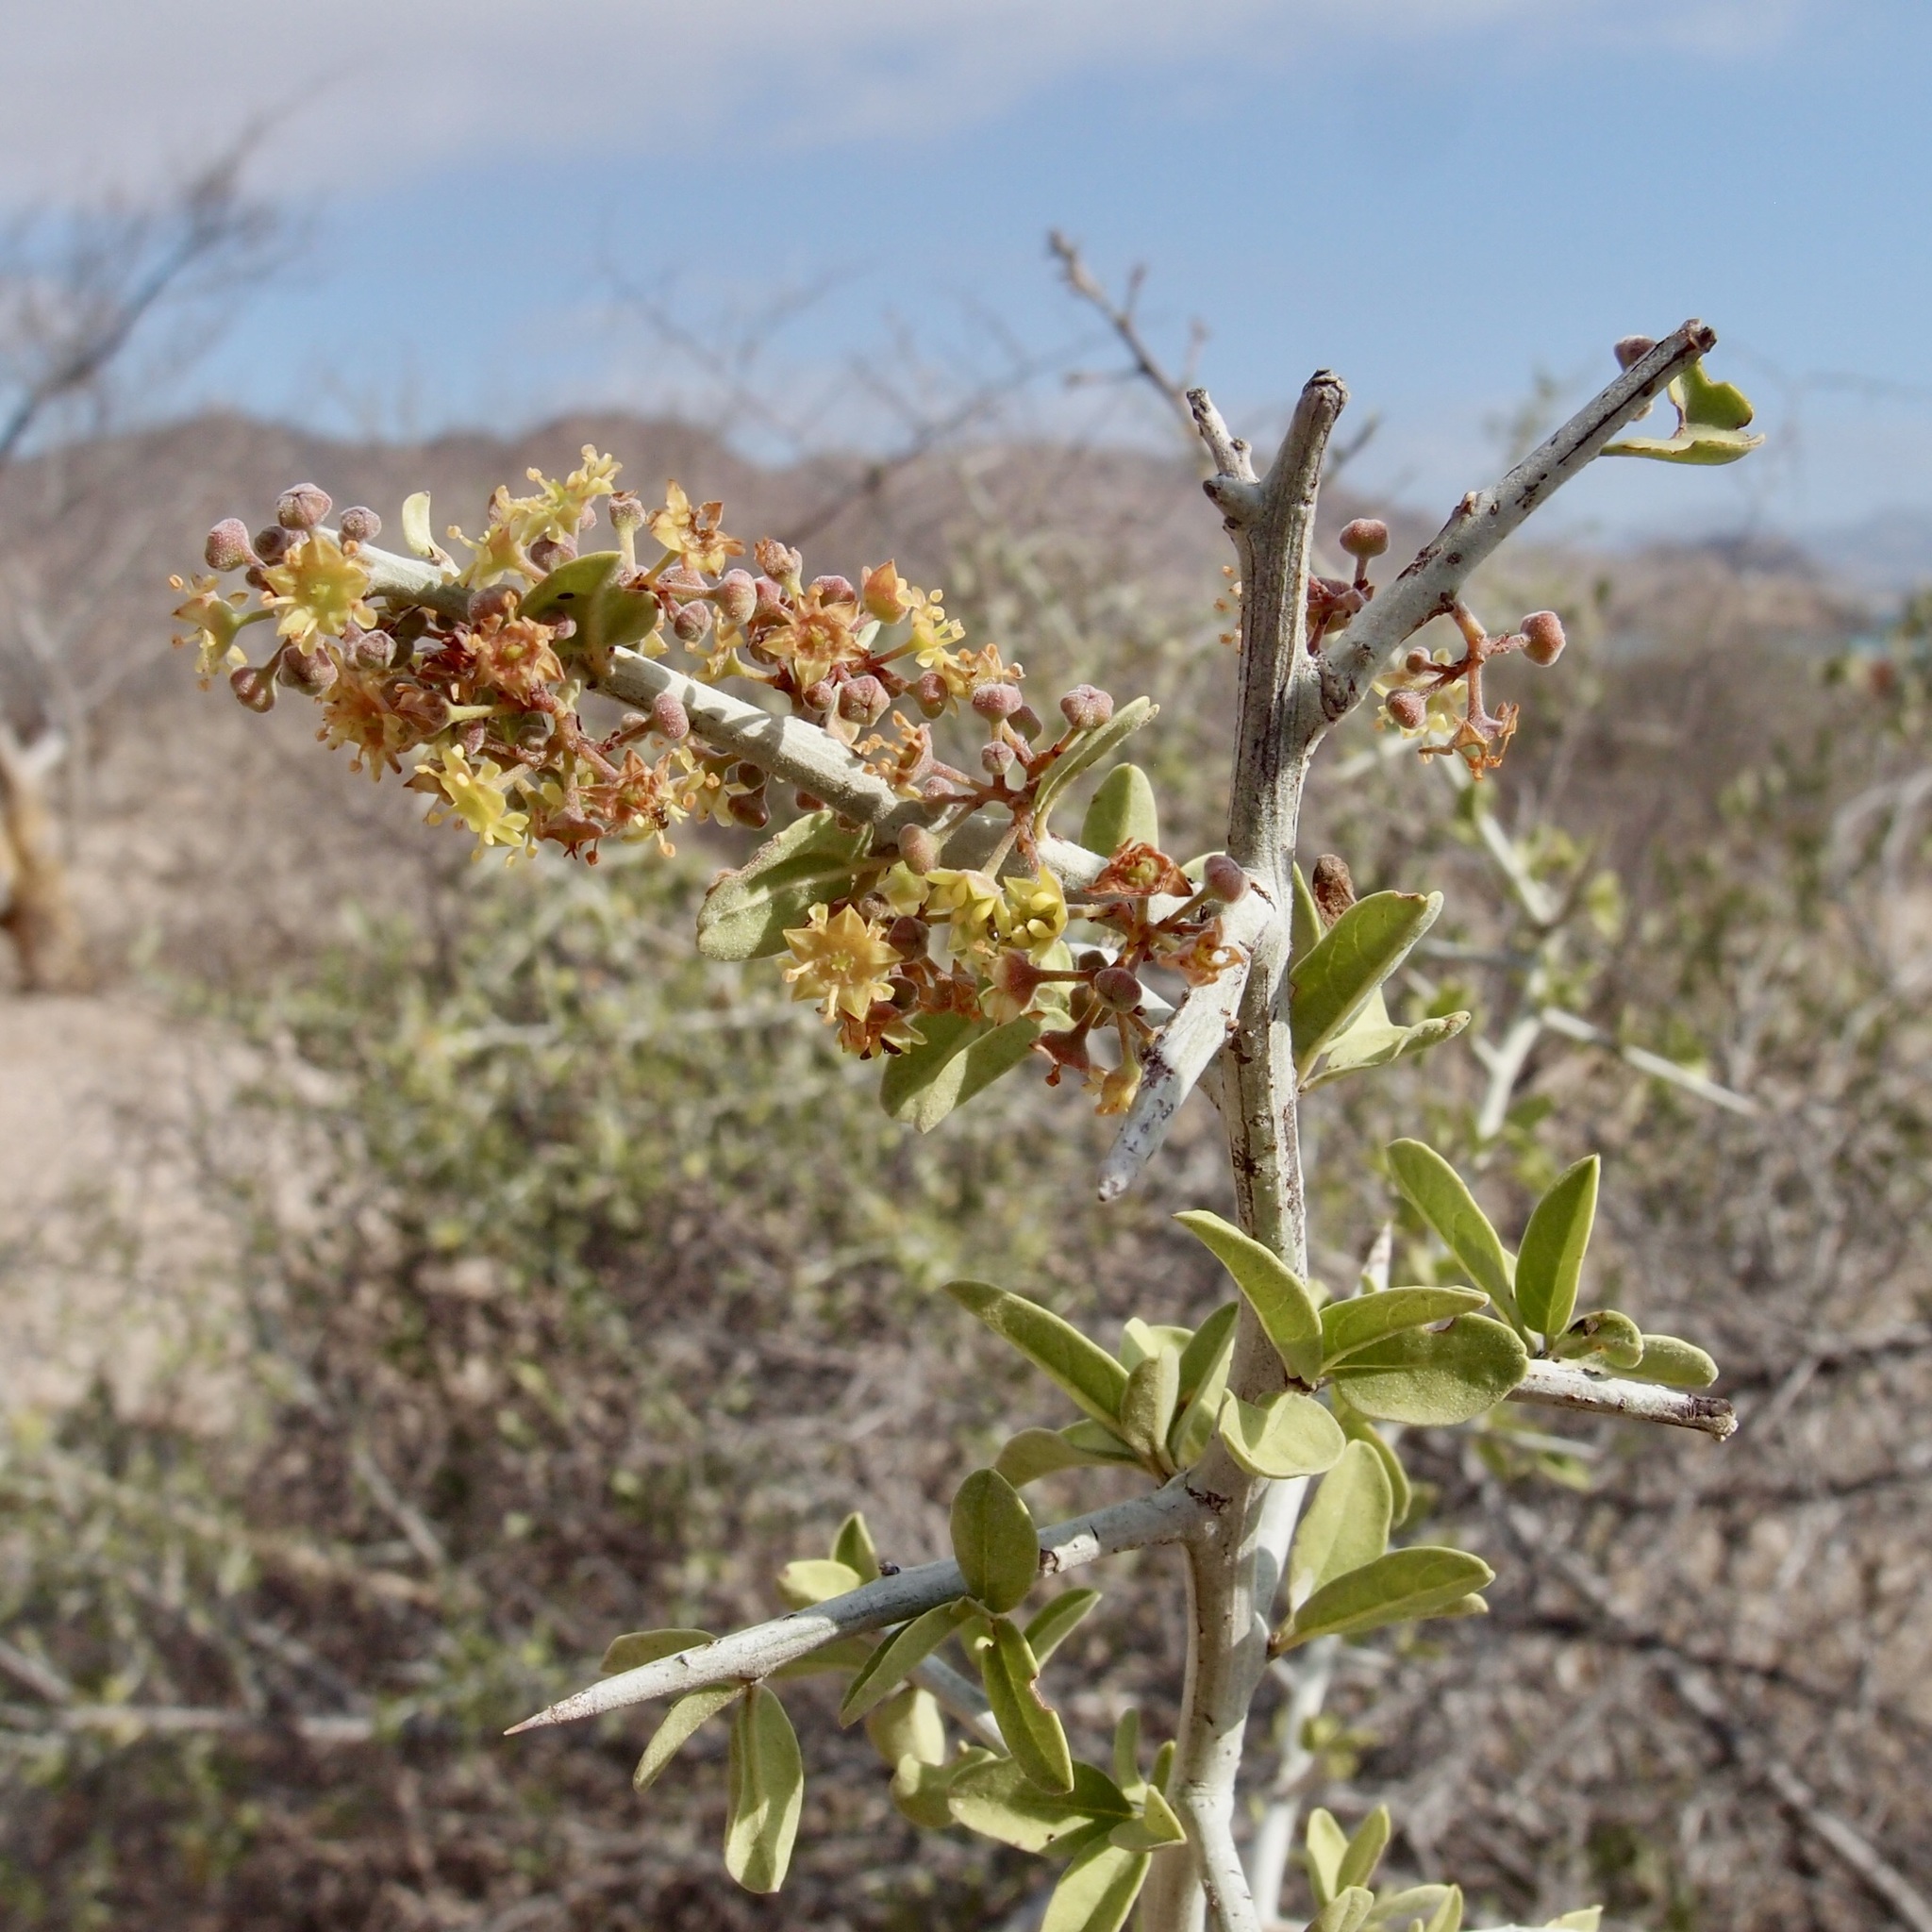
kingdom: Plantae
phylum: Tracheophyta
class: Magnoliopsida
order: Rosales
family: Rhamnaceae
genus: Sarcomphalus
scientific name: Sarcomphalus obtusifolius
